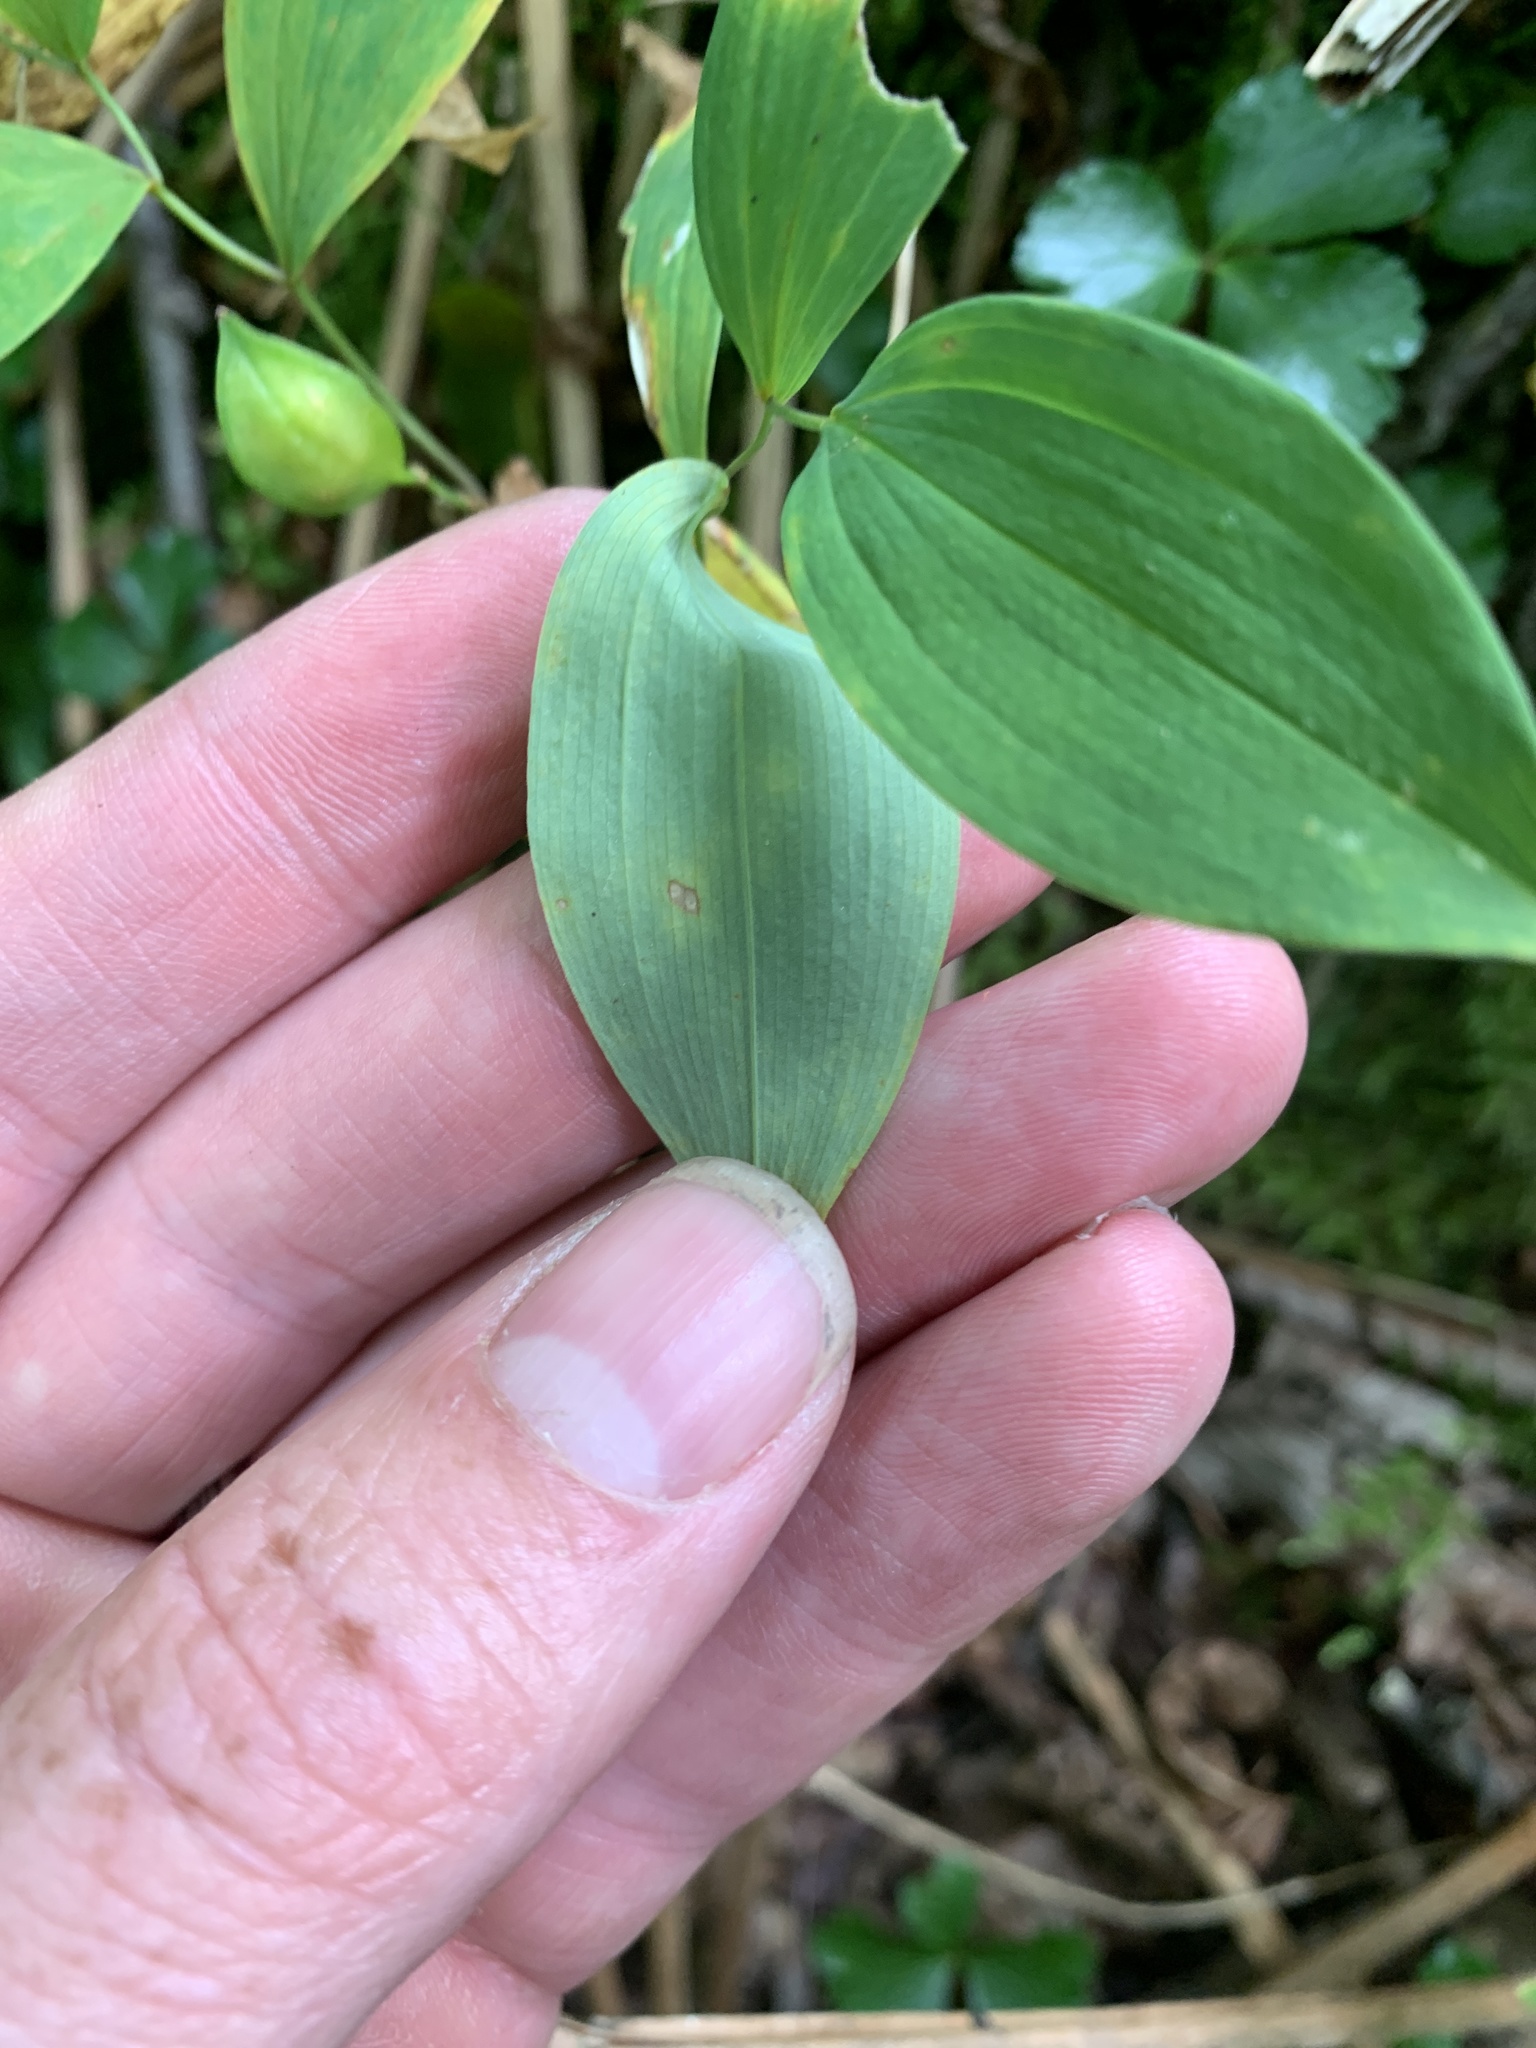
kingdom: Plantae
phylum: Tracheophyta
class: Liliopsida
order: Liliales
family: Colchicaceae
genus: Uvularia
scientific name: Uvularia sessilifolia
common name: Straw-lily
